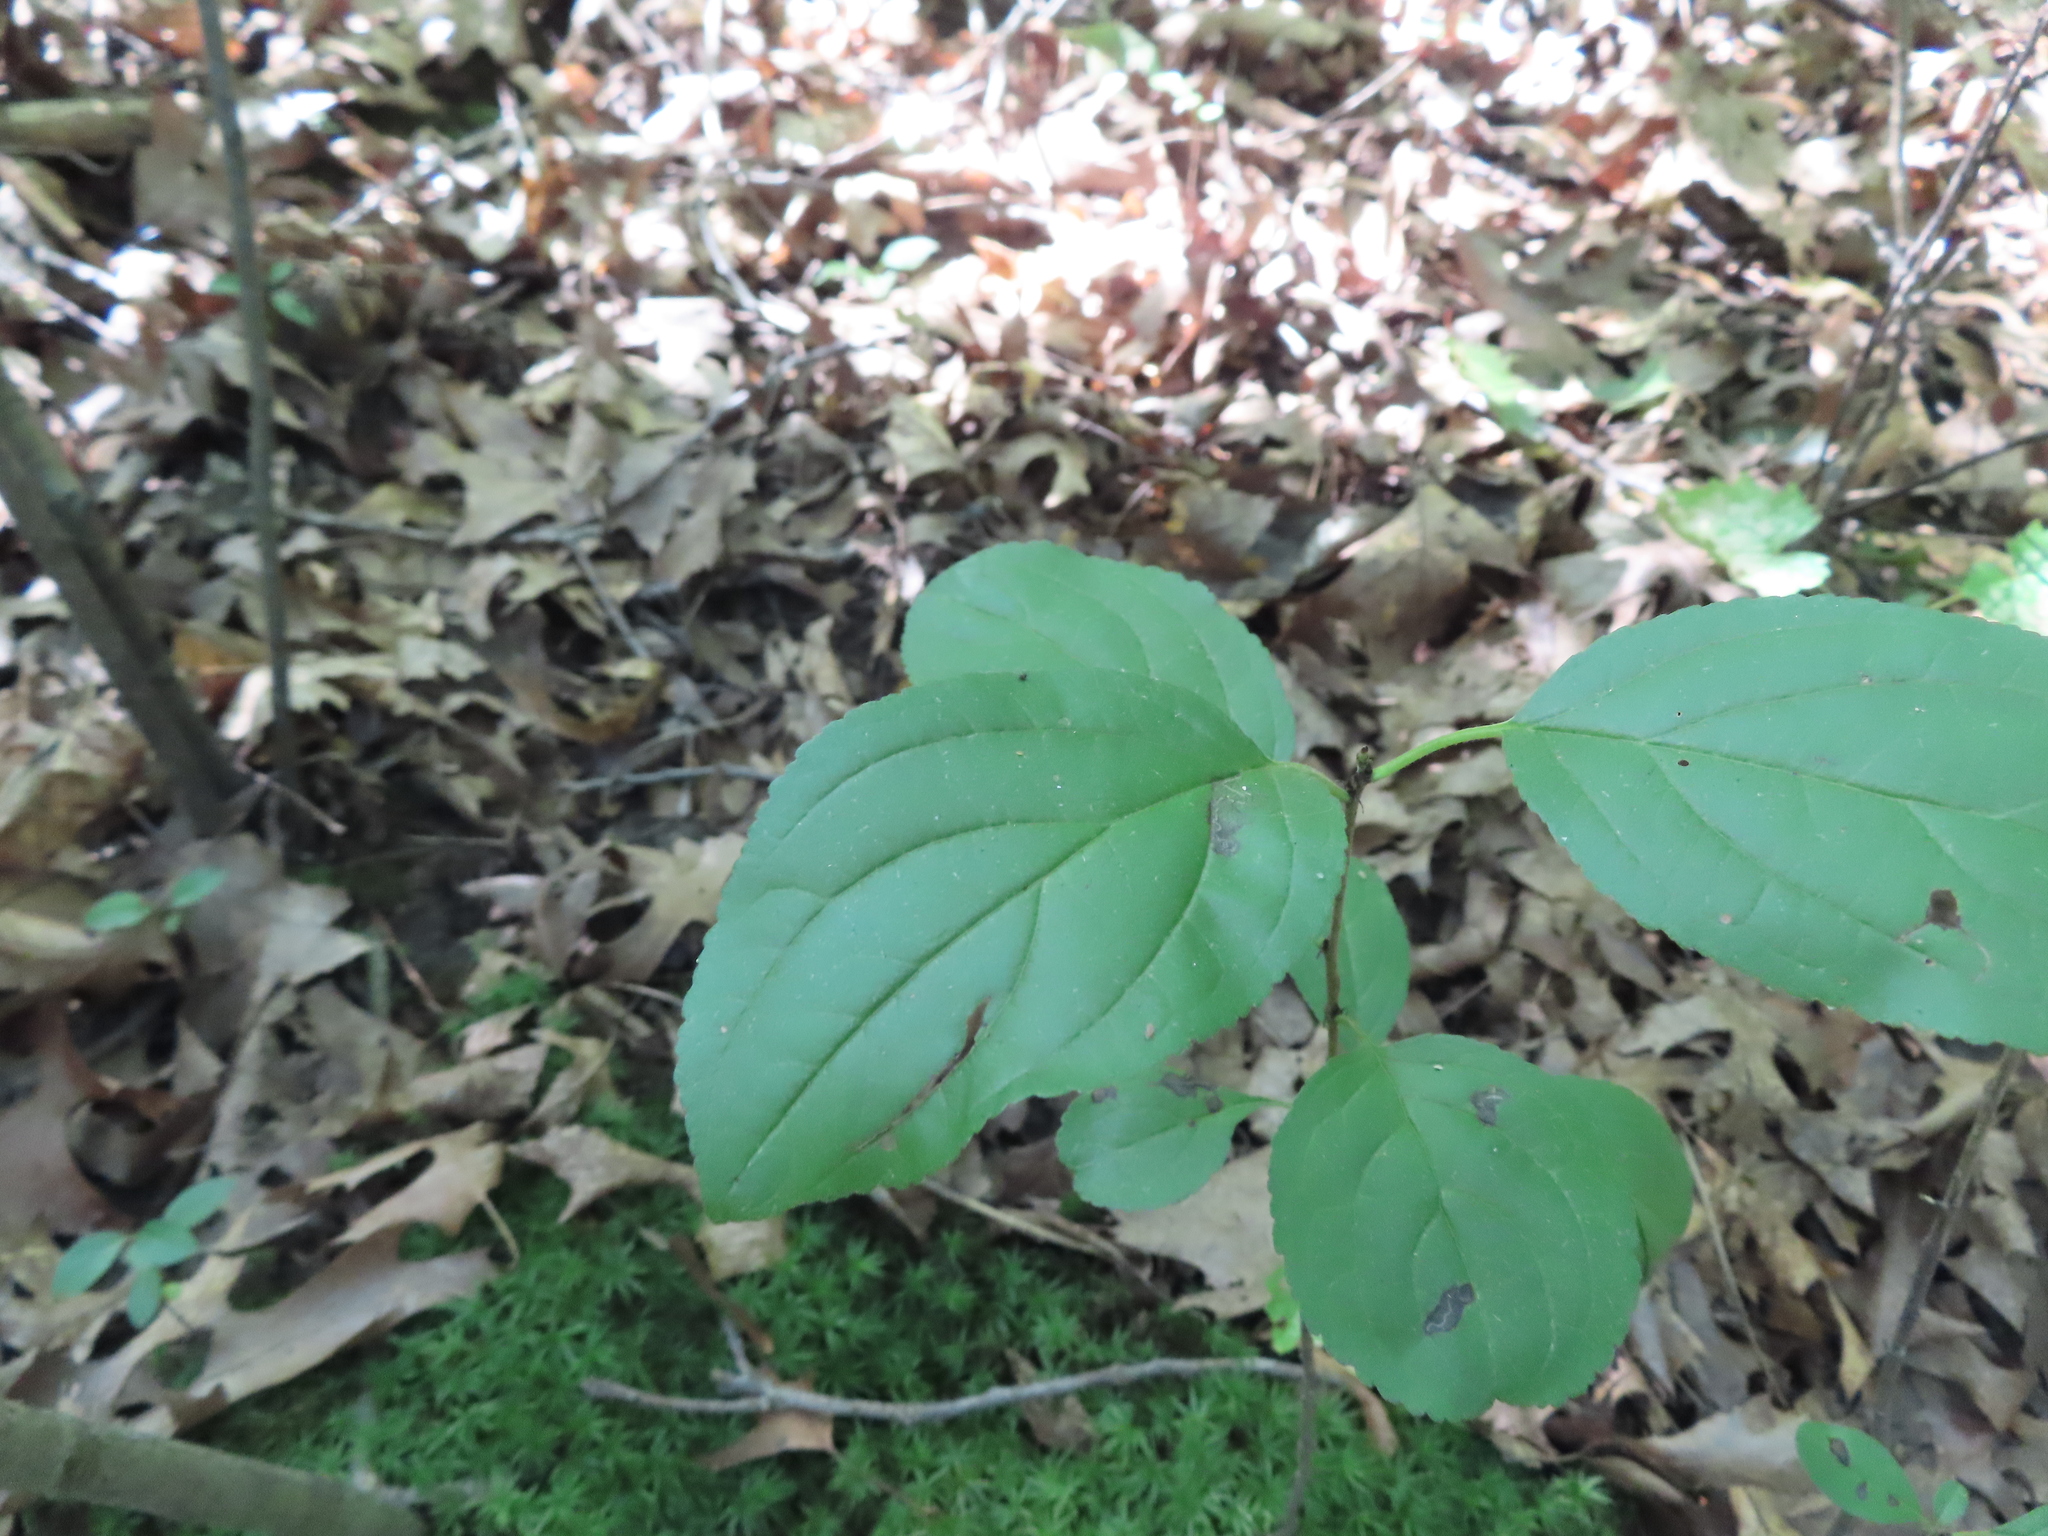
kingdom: Plantae
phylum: Tracheophyta
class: Magnoliopsida
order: Rosales
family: Rhamnaceae
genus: Rhamnus
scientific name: Rhamnus cathartica
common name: Common buckthorn
